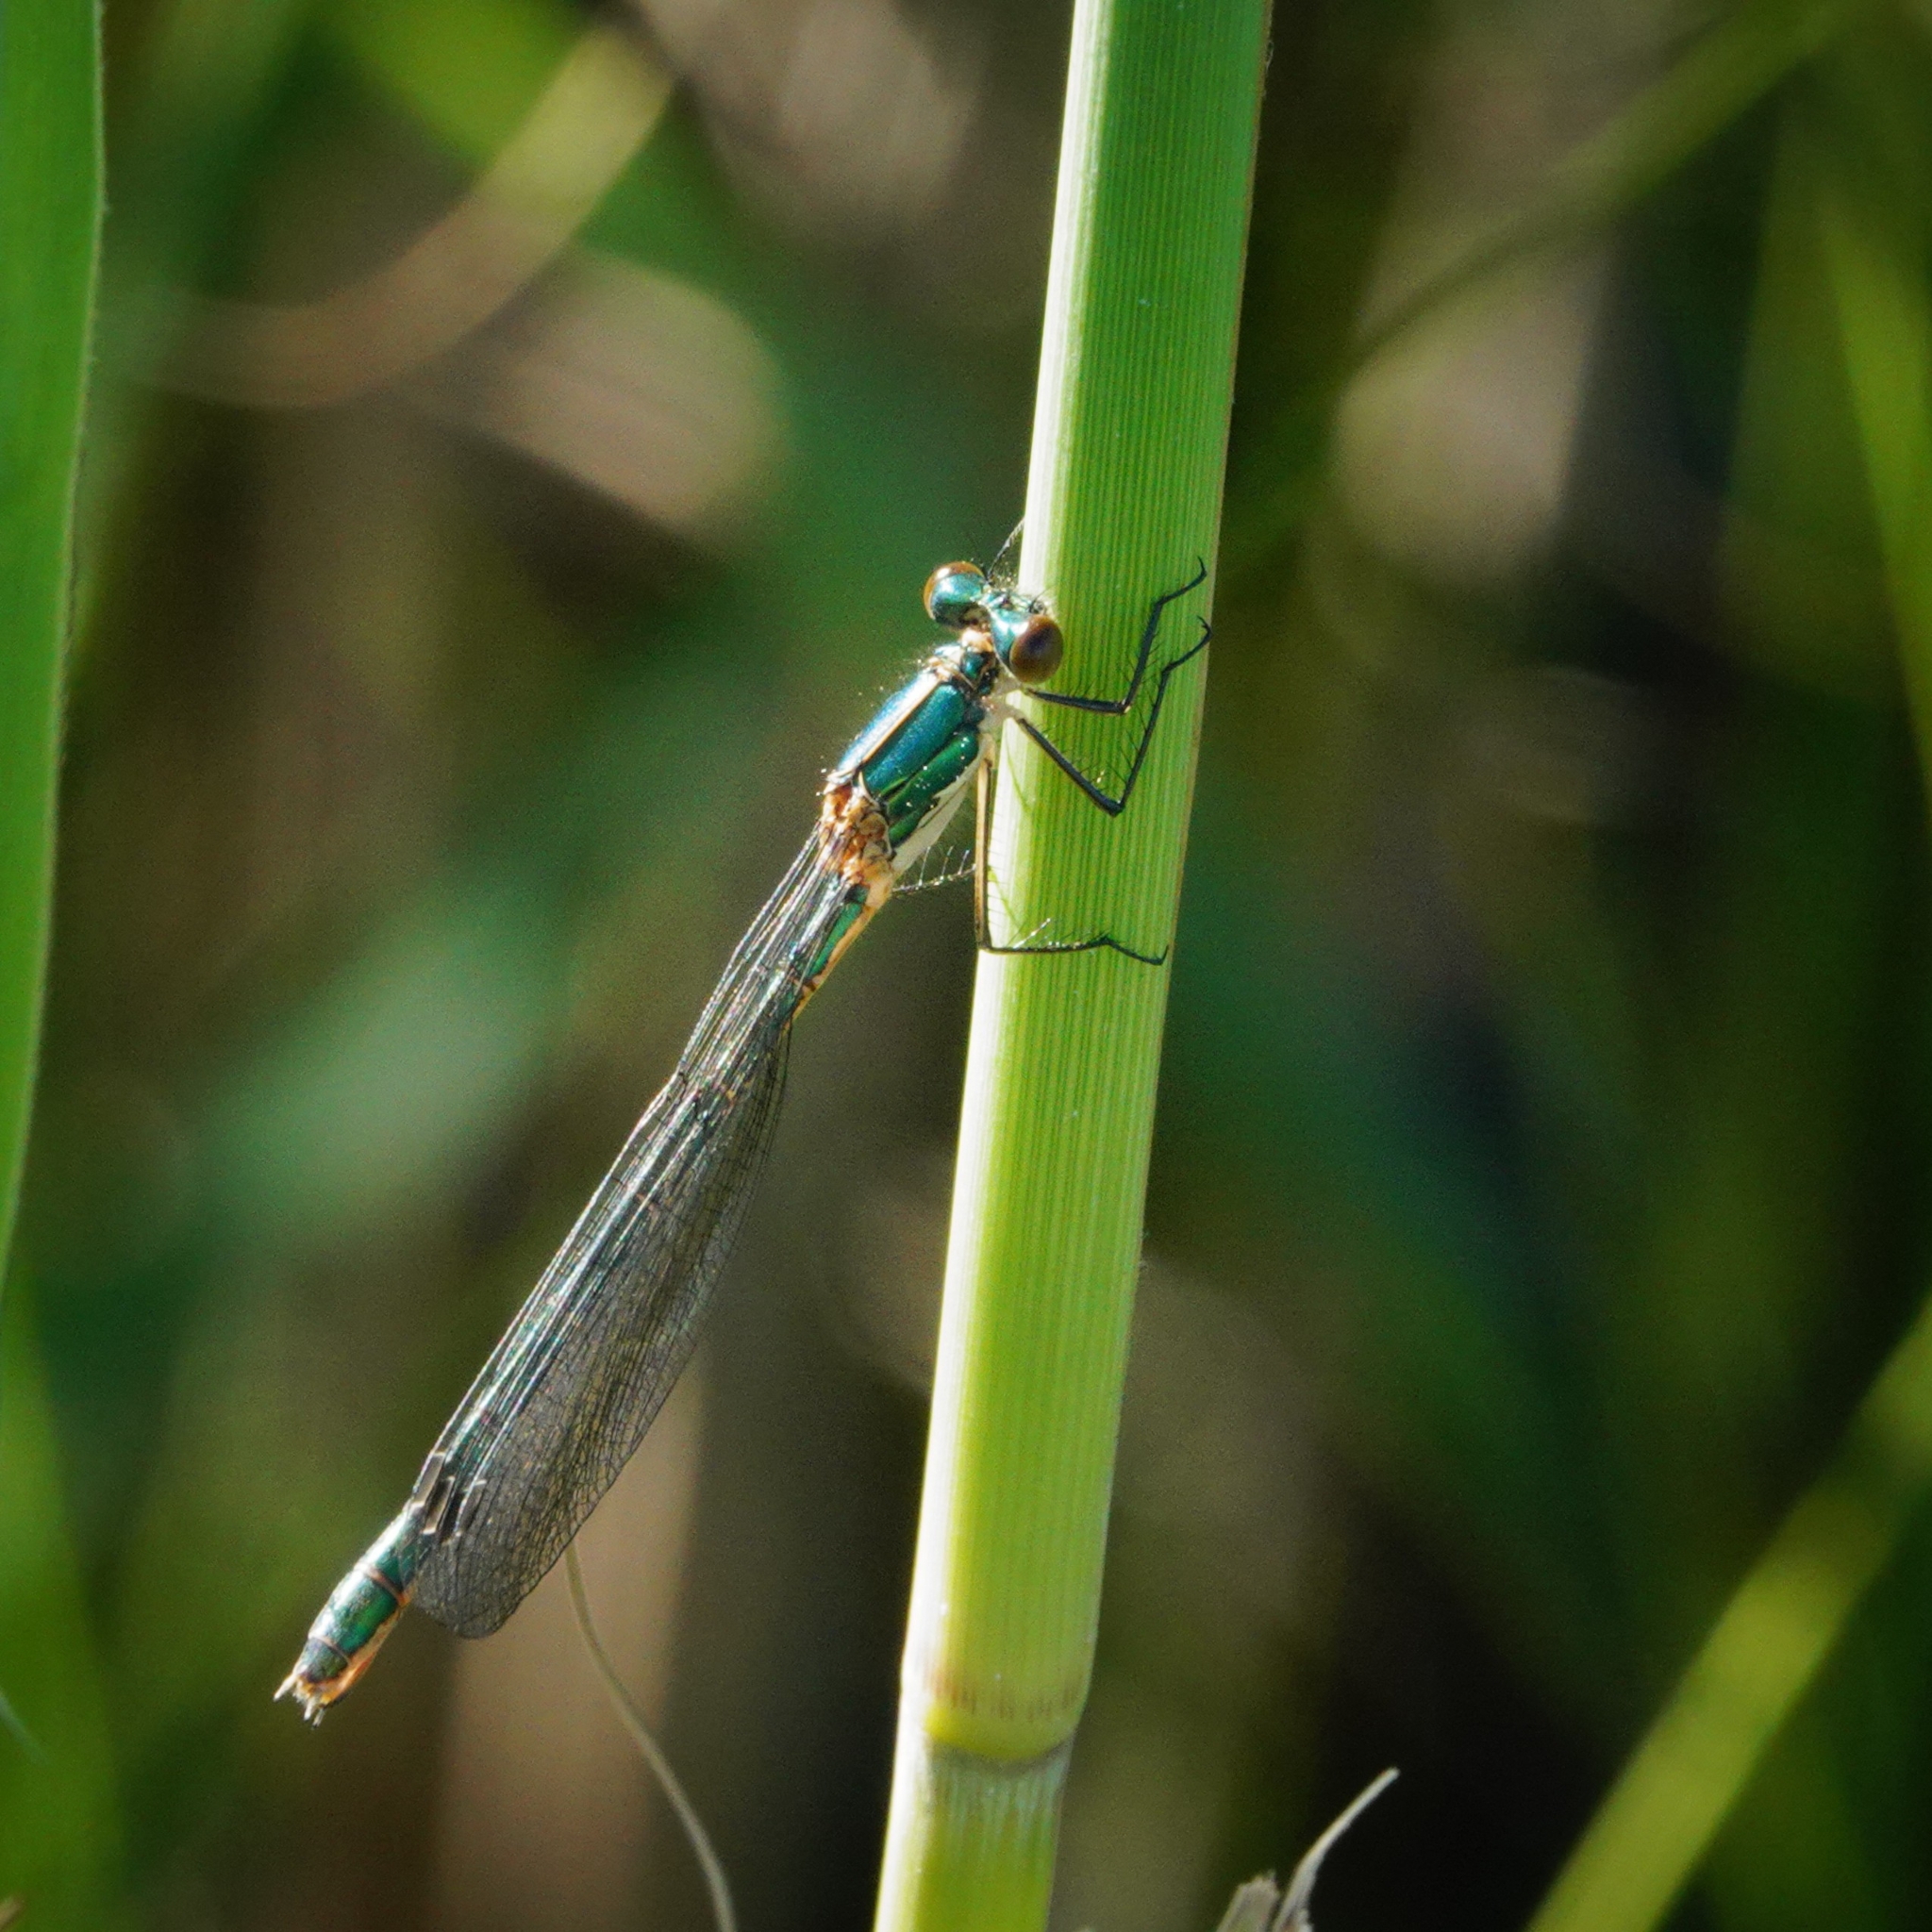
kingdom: Animalia
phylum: Arthropoda
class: Insecta
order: Odonata
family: Lestidae
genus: Lestes
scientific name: Lestes dryas
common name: Scarce emerald damselfly
